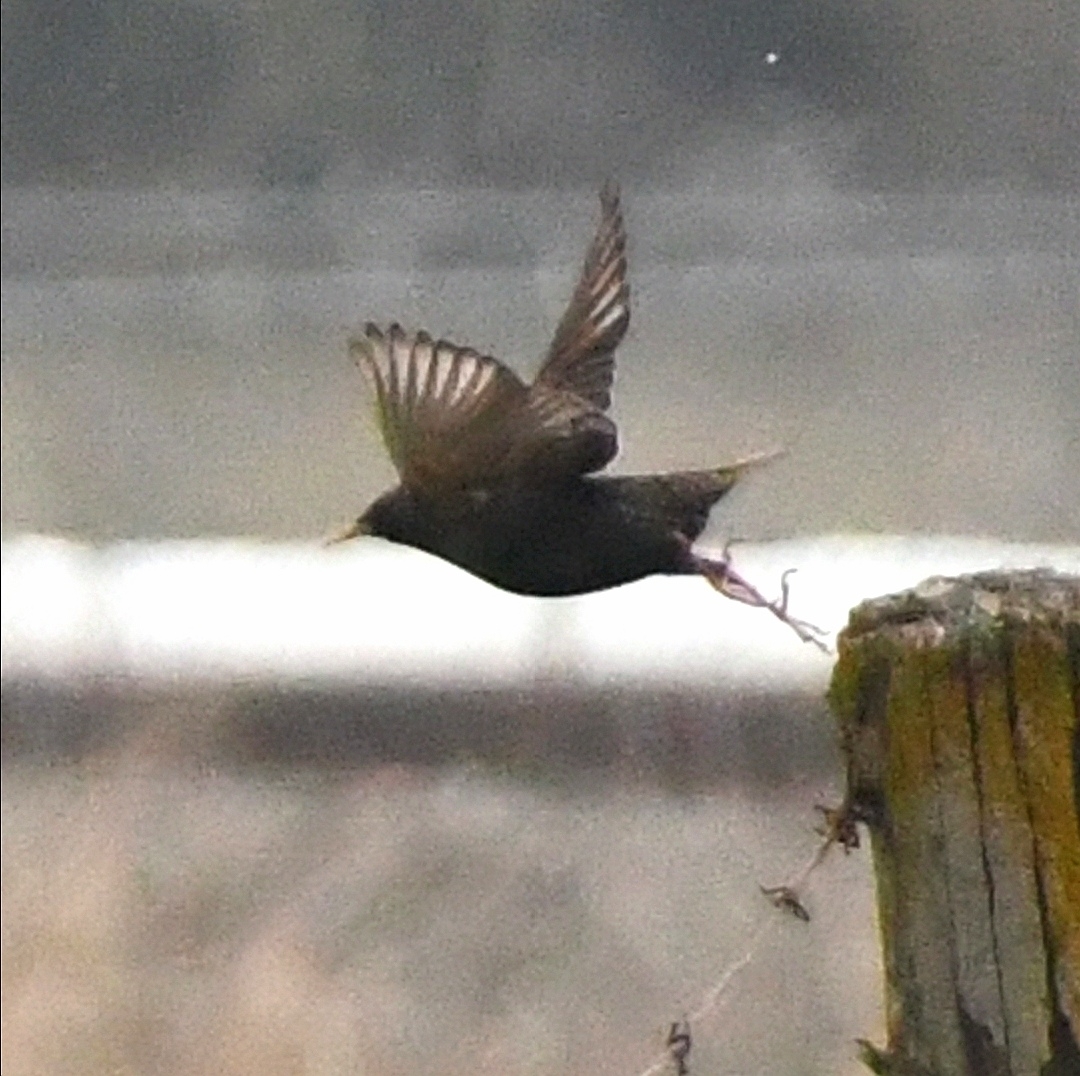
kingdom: Animalia
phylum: Chordata
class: Aves
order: Passeriformes
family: Sturnidae
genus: Sturnus
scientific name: Sturnus vulgaris
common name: Common starling
